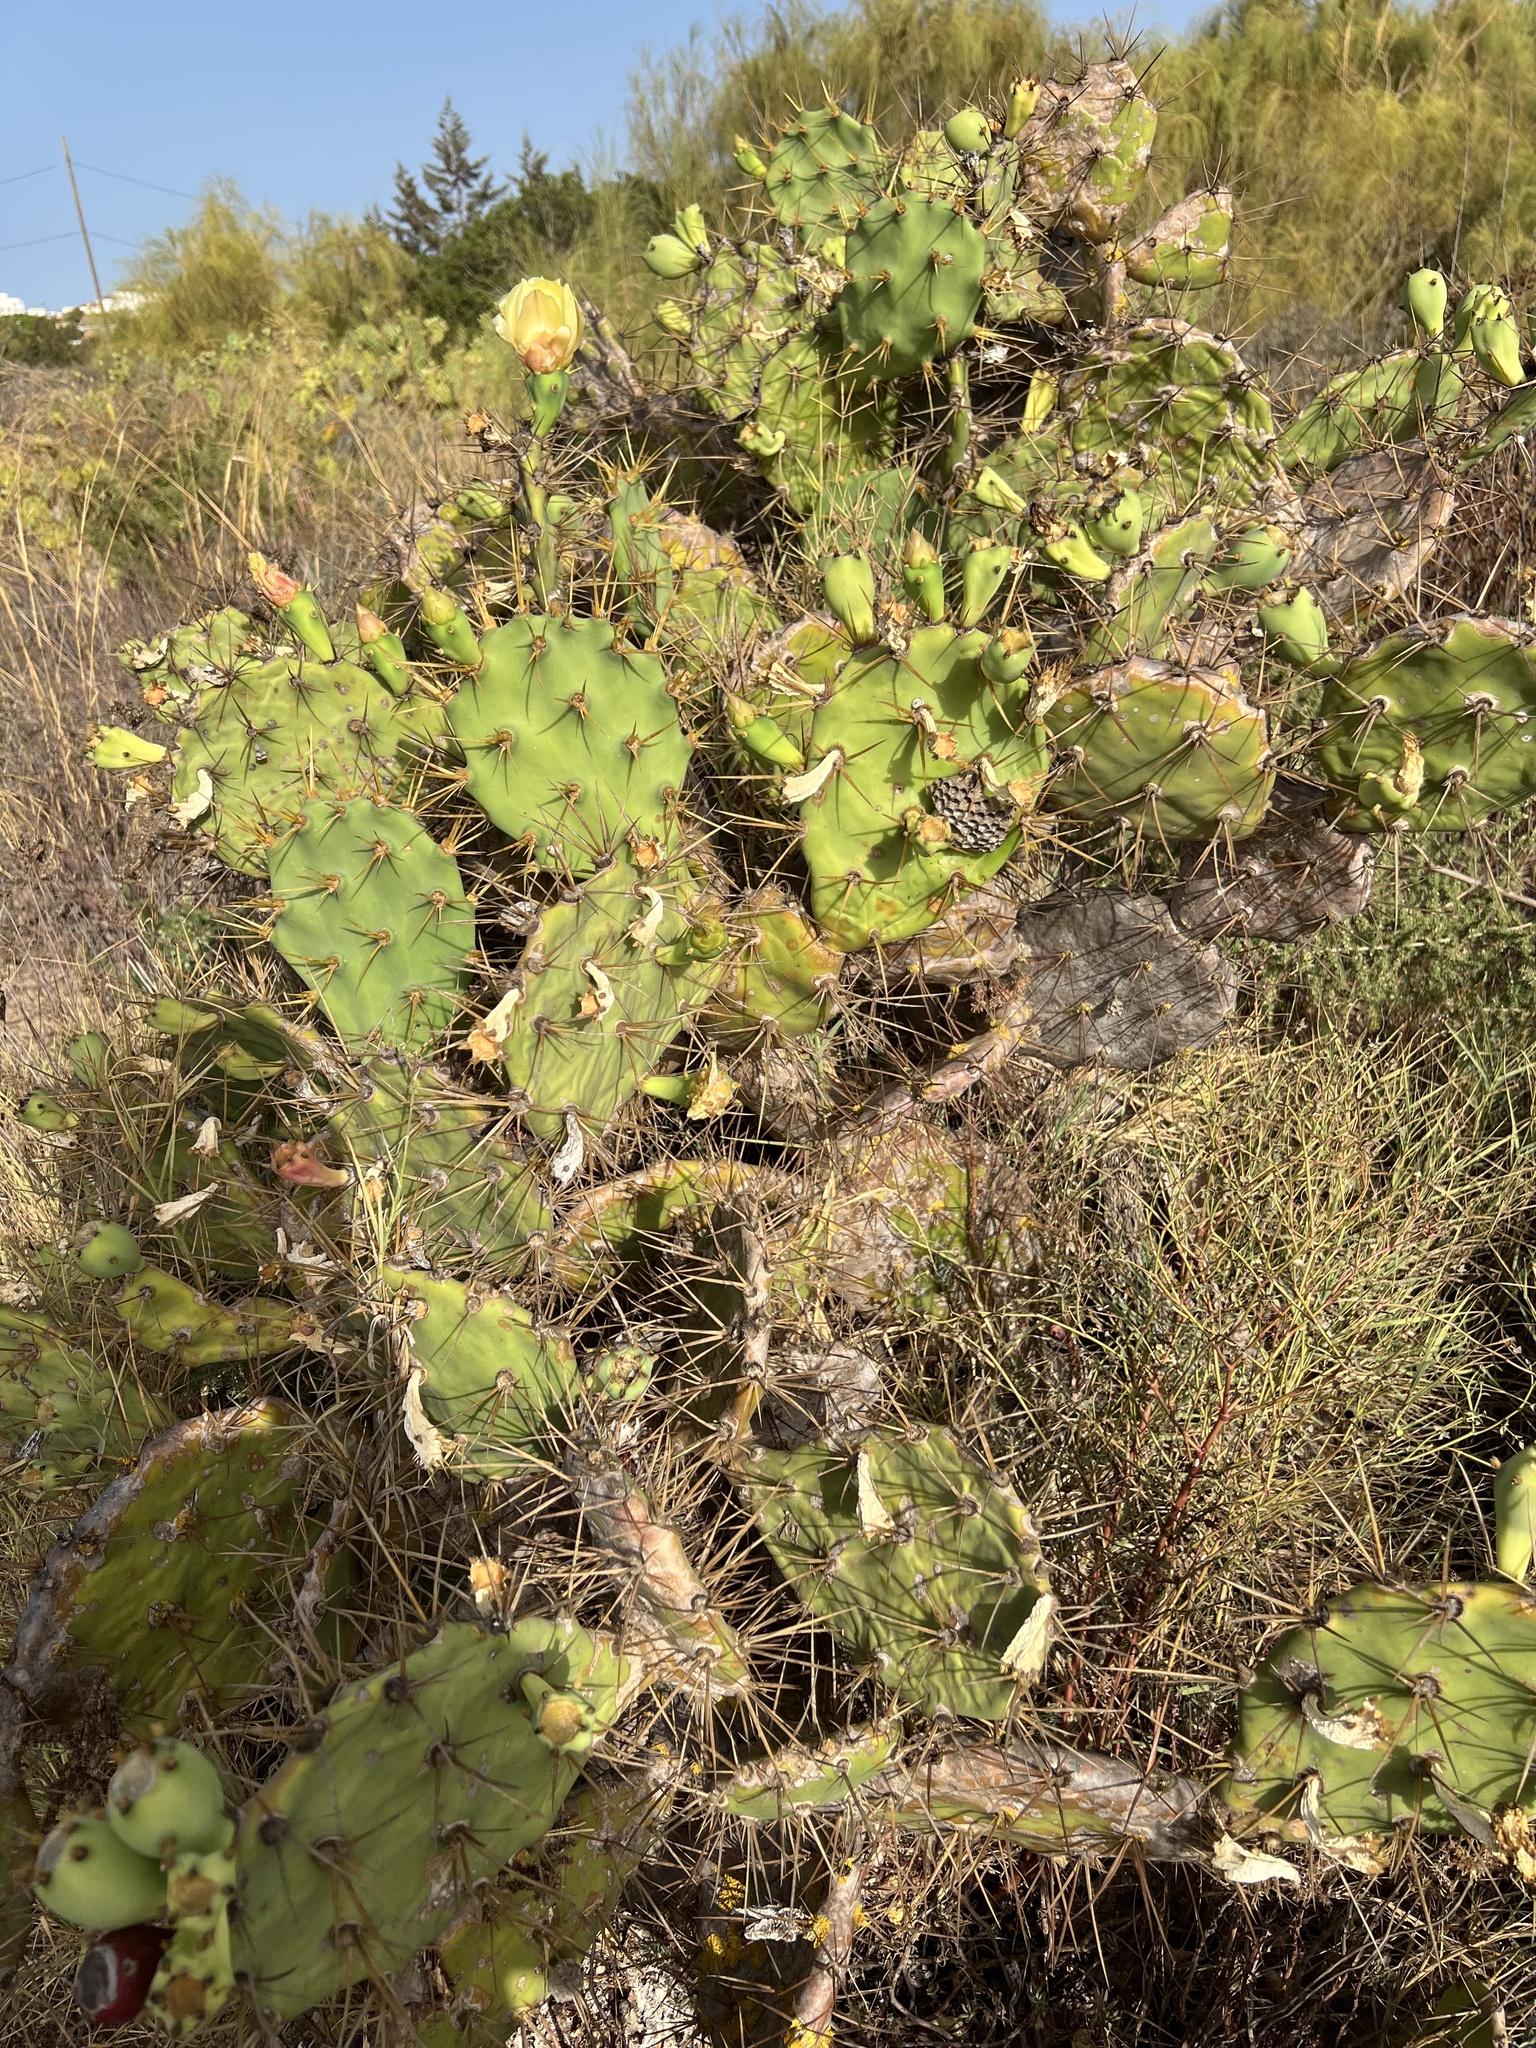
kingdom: Plantae
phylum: Tracheophyta
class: Magnoliopsida
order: Caryophyllales
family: Cactaceae
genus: Opuntia
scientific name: Opuntia stricta
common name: Erect pricklypear
